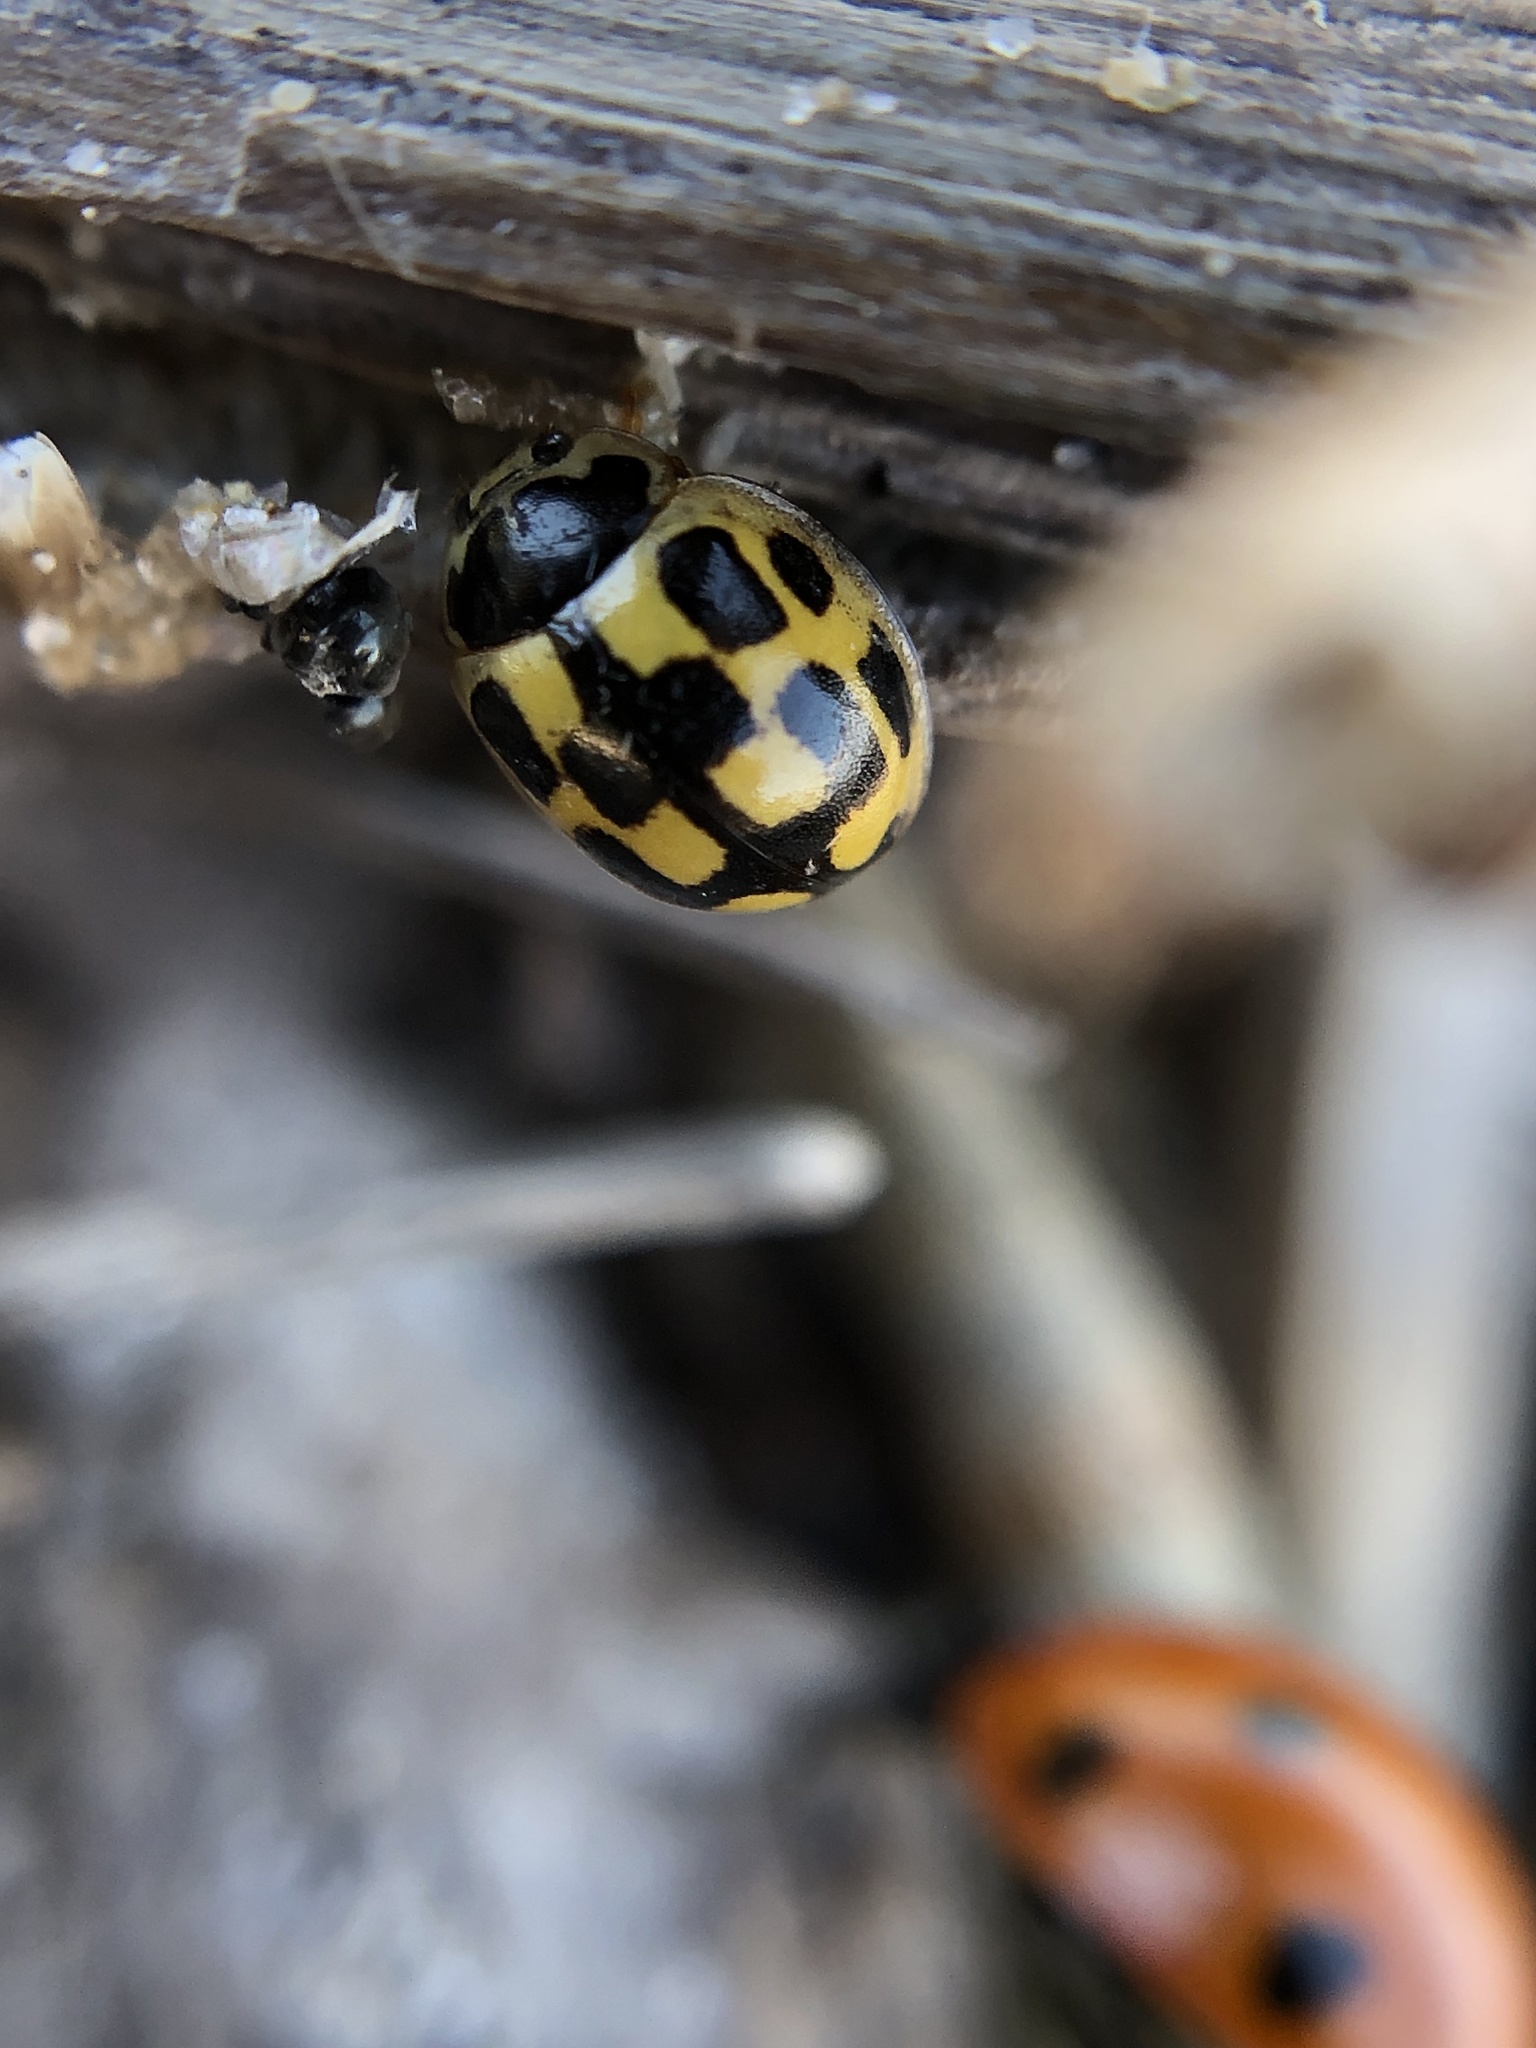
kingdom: Animalia
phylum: Arthropoda
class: Insecta
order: Coleoptera
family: Coccinellidae
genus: Propylaea
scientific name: Propylaea quatuordecimpunctata
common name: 14-spotted ladybird beetle
